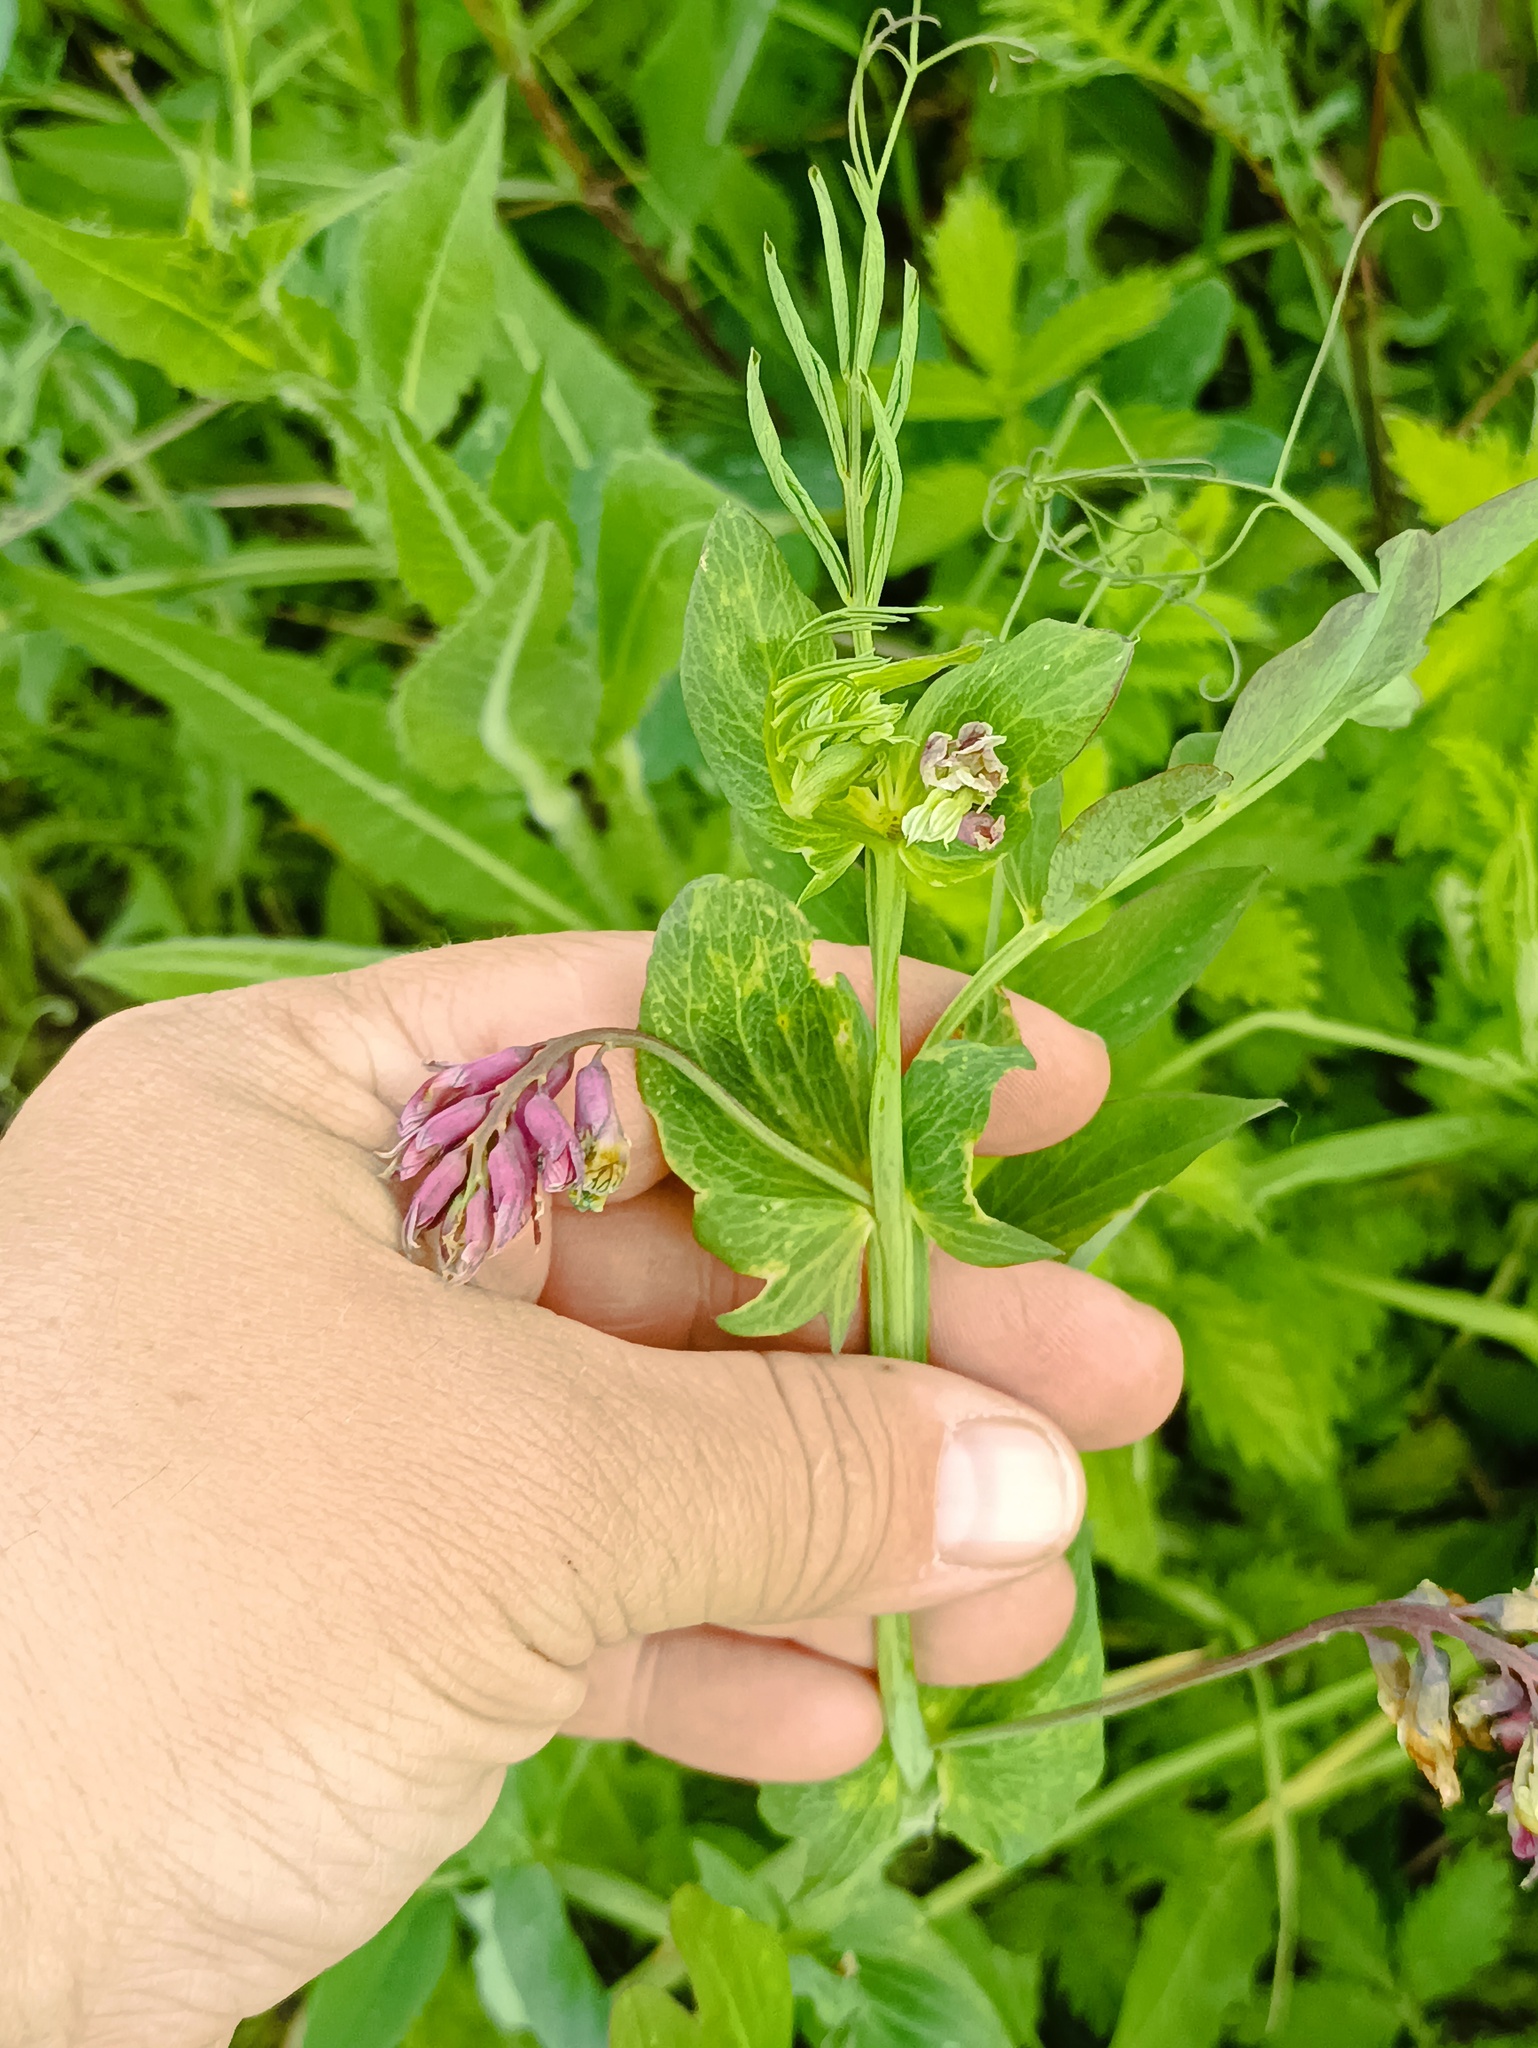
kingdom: Plantae
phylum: Tracheophyta
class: Magnoliopsida
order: Fabales
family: Fabaceae
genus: Lathyrus
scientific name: Lathyrus pisiformis
